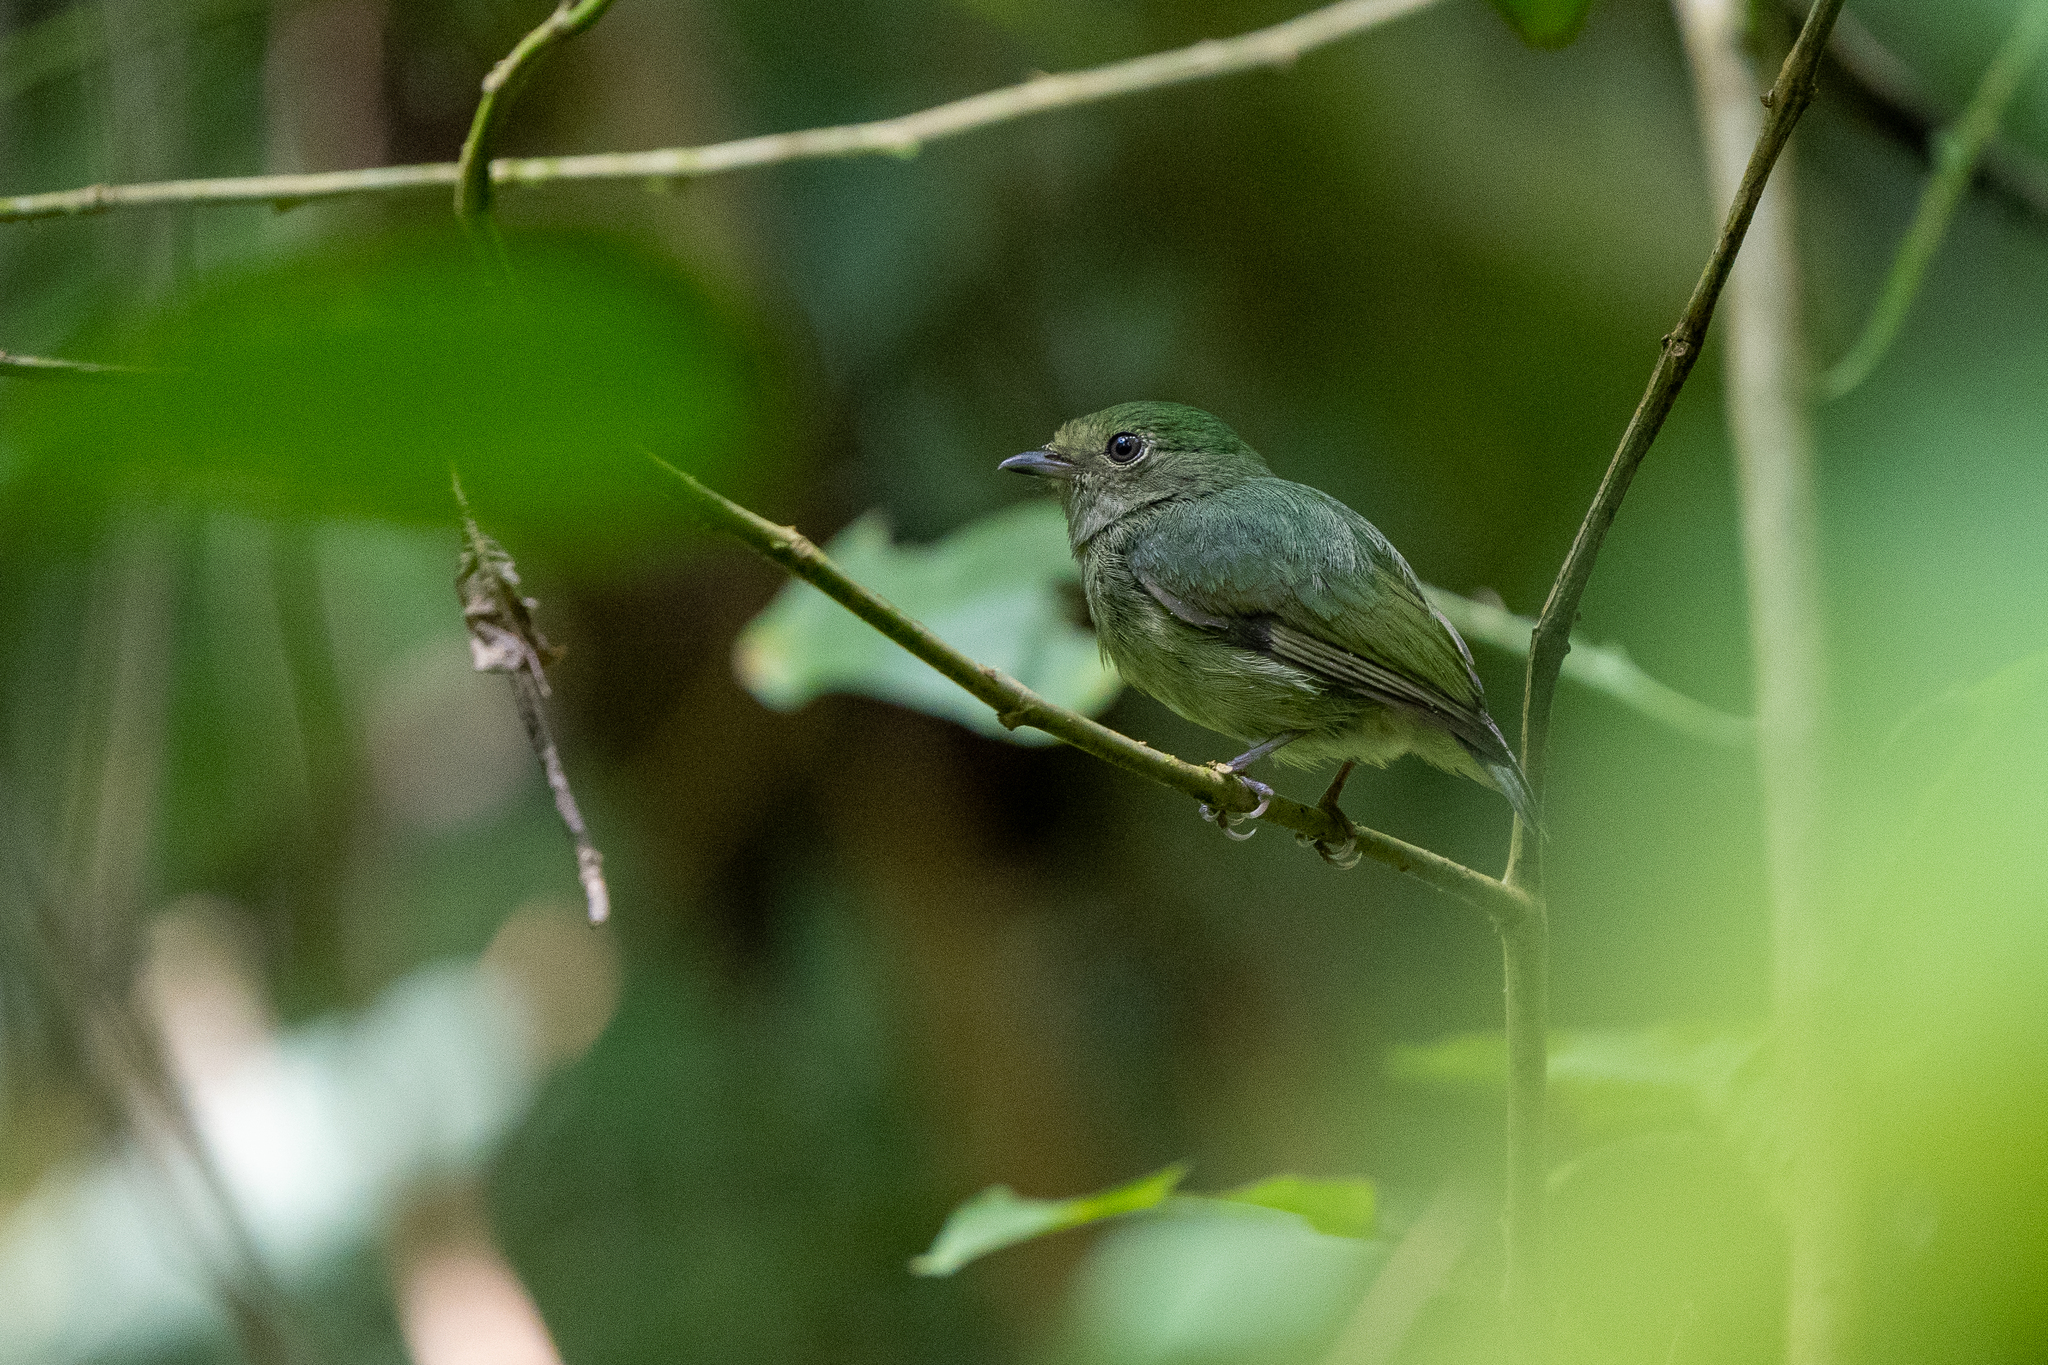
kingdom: Animalia
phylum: Chordata
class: Aves
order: Passeriformes
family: Pipridae
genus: Lepidothrix
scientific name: Lepidothrix coronata
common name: Blue-crowned manakin
